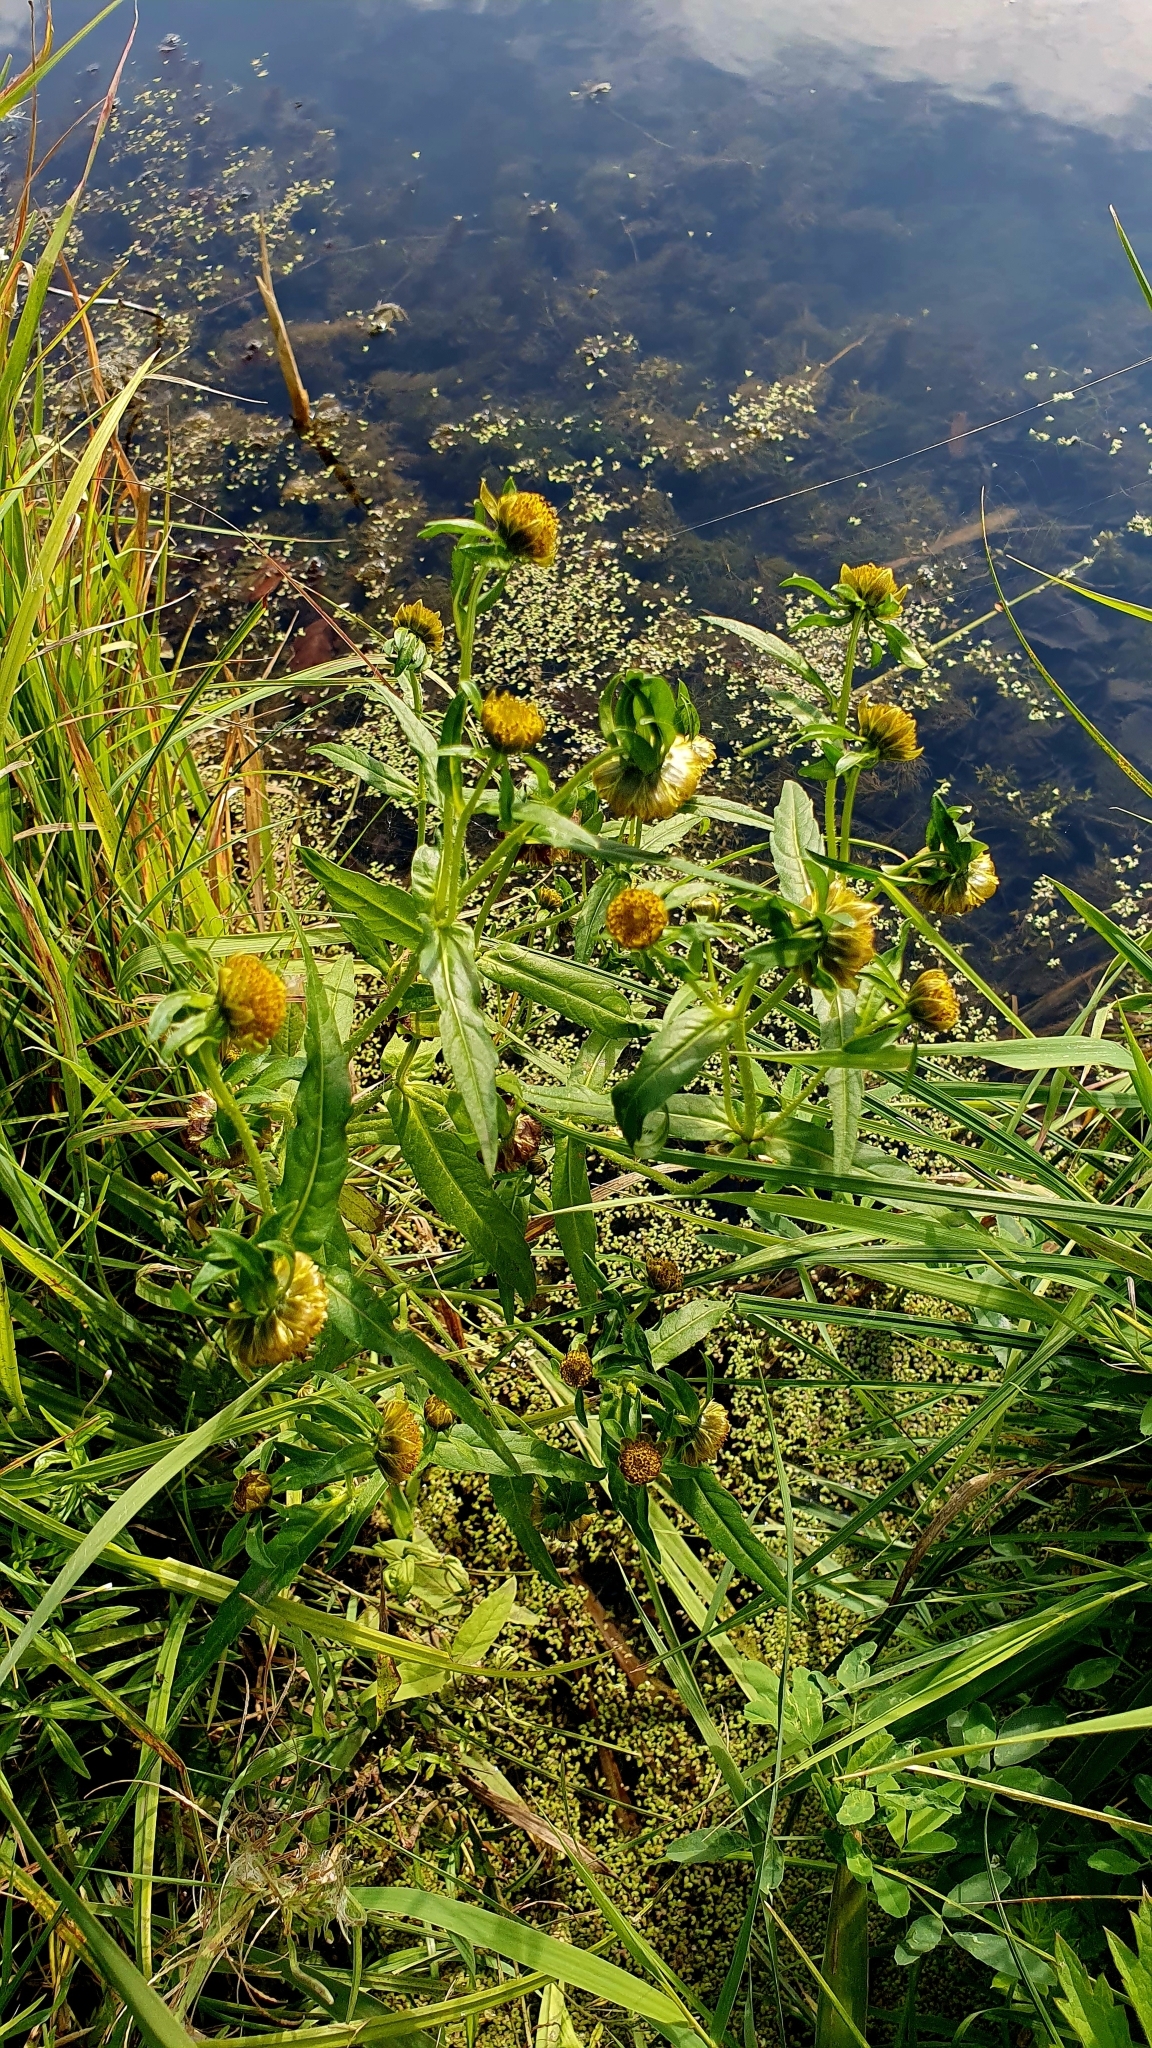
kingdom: Plantae
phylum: Tracheophyta
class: Magnoliopsida
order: Asterales
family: Asteraceae
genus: Bidens
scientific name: Bidens cernua
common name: Nodding bur-marigold
